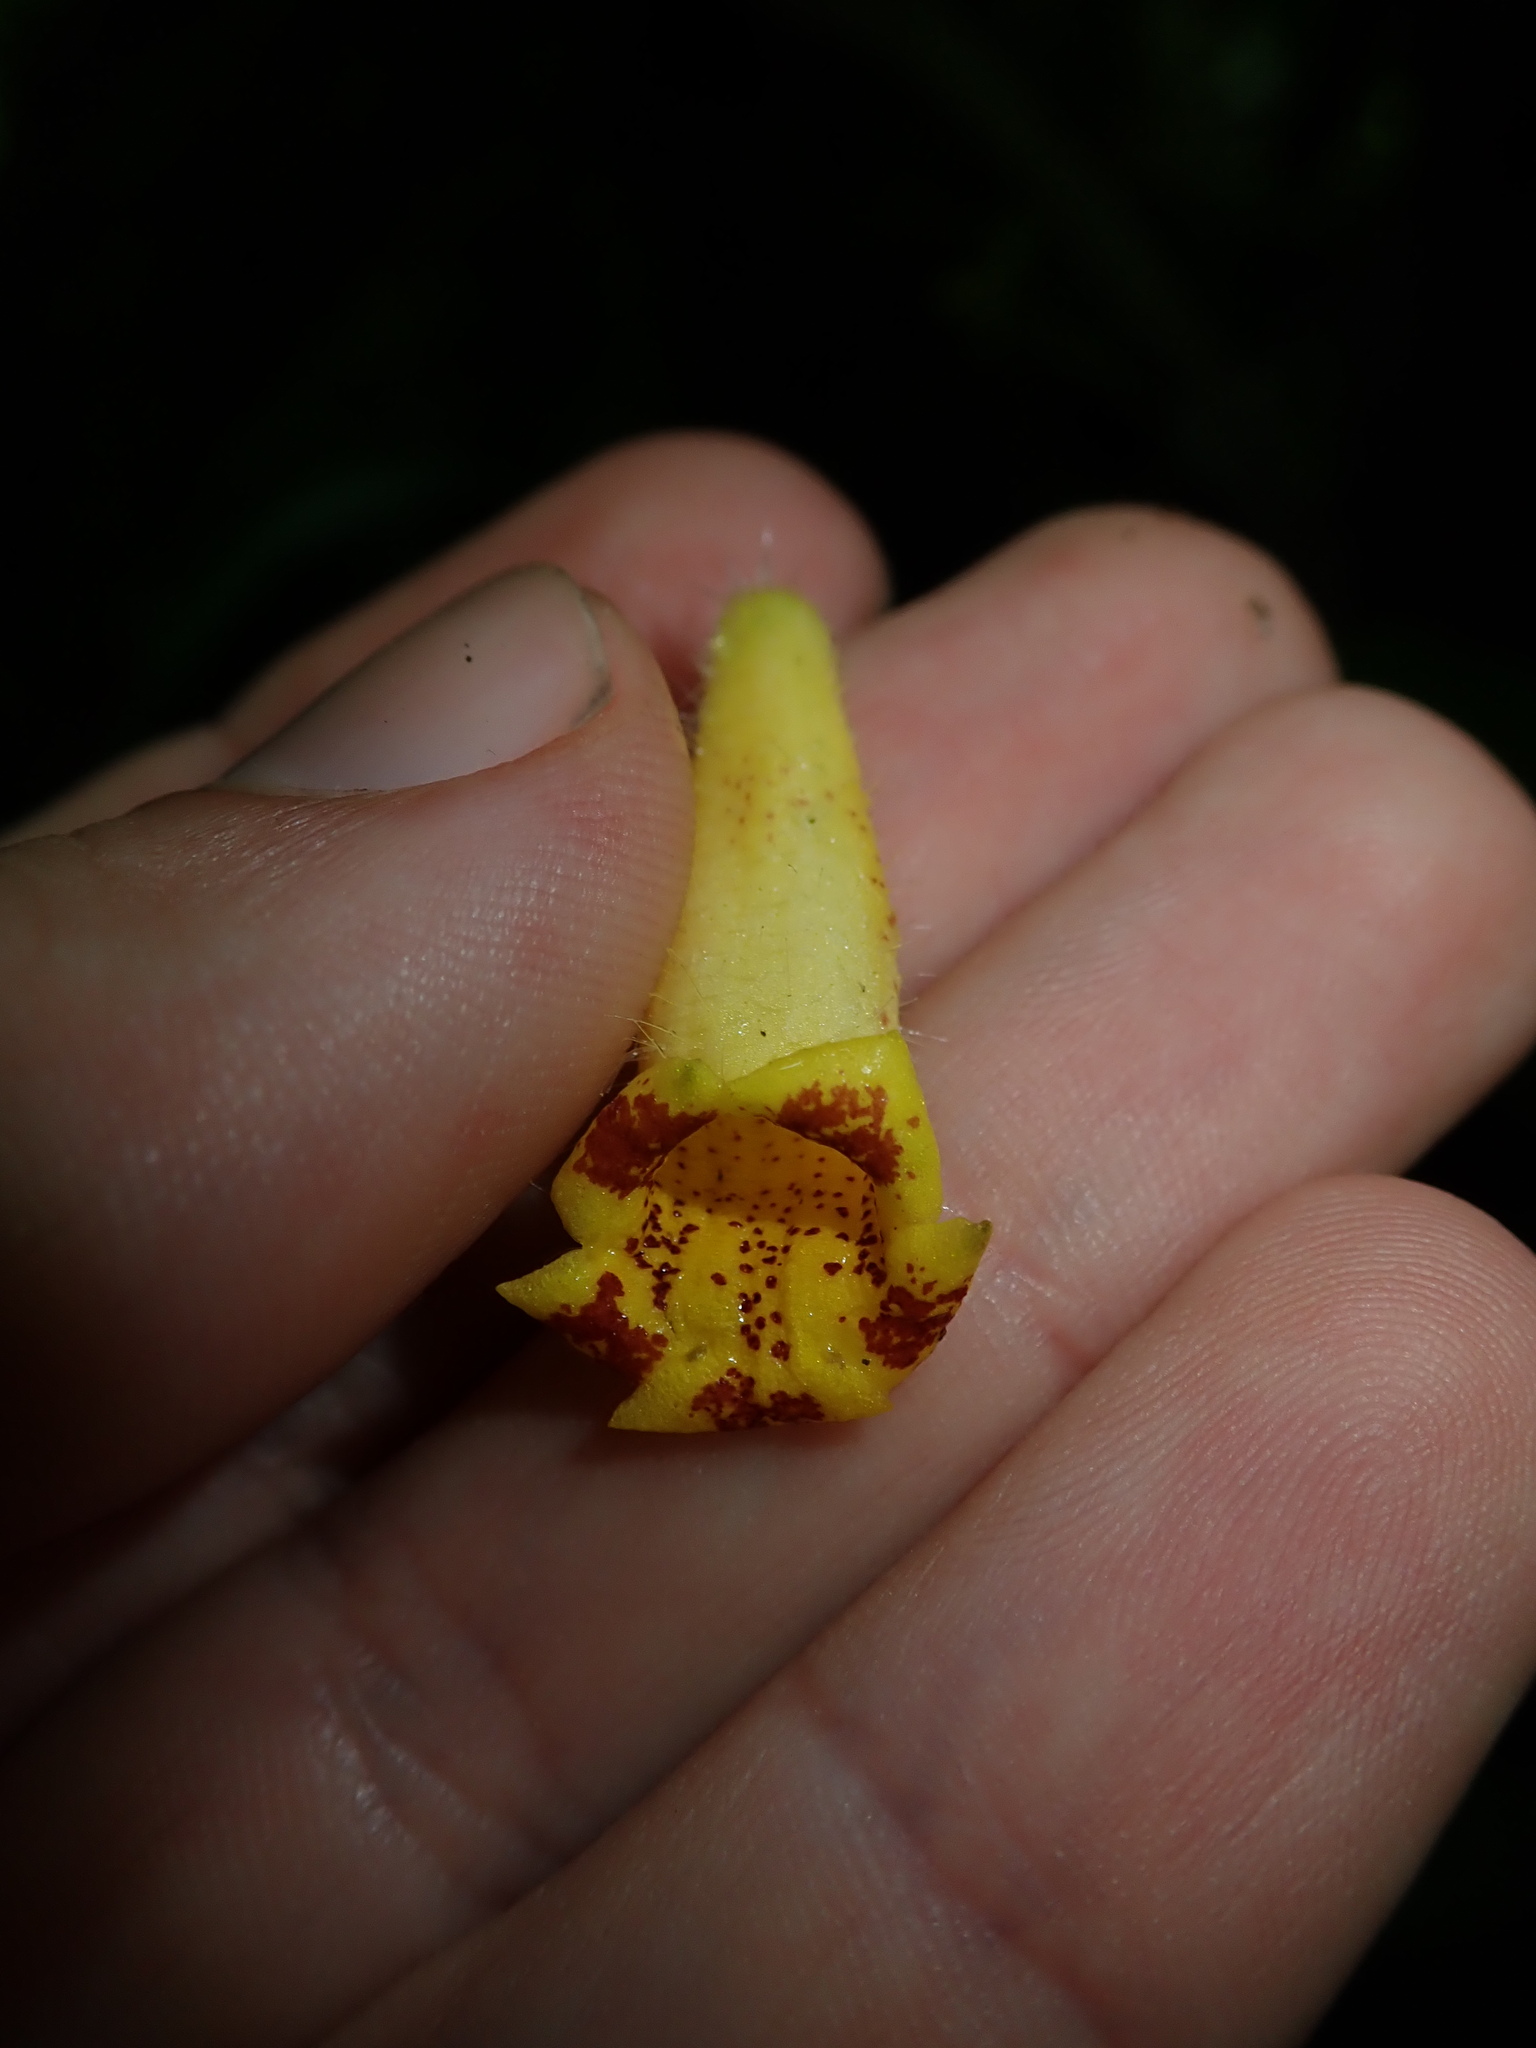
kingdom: Plantae
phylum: Tracheophyta
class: Magnoliopsida
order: Lamiales
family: Gesneriaceae
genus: Gasteranthus
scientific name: Gasteranthus wendlandianus
